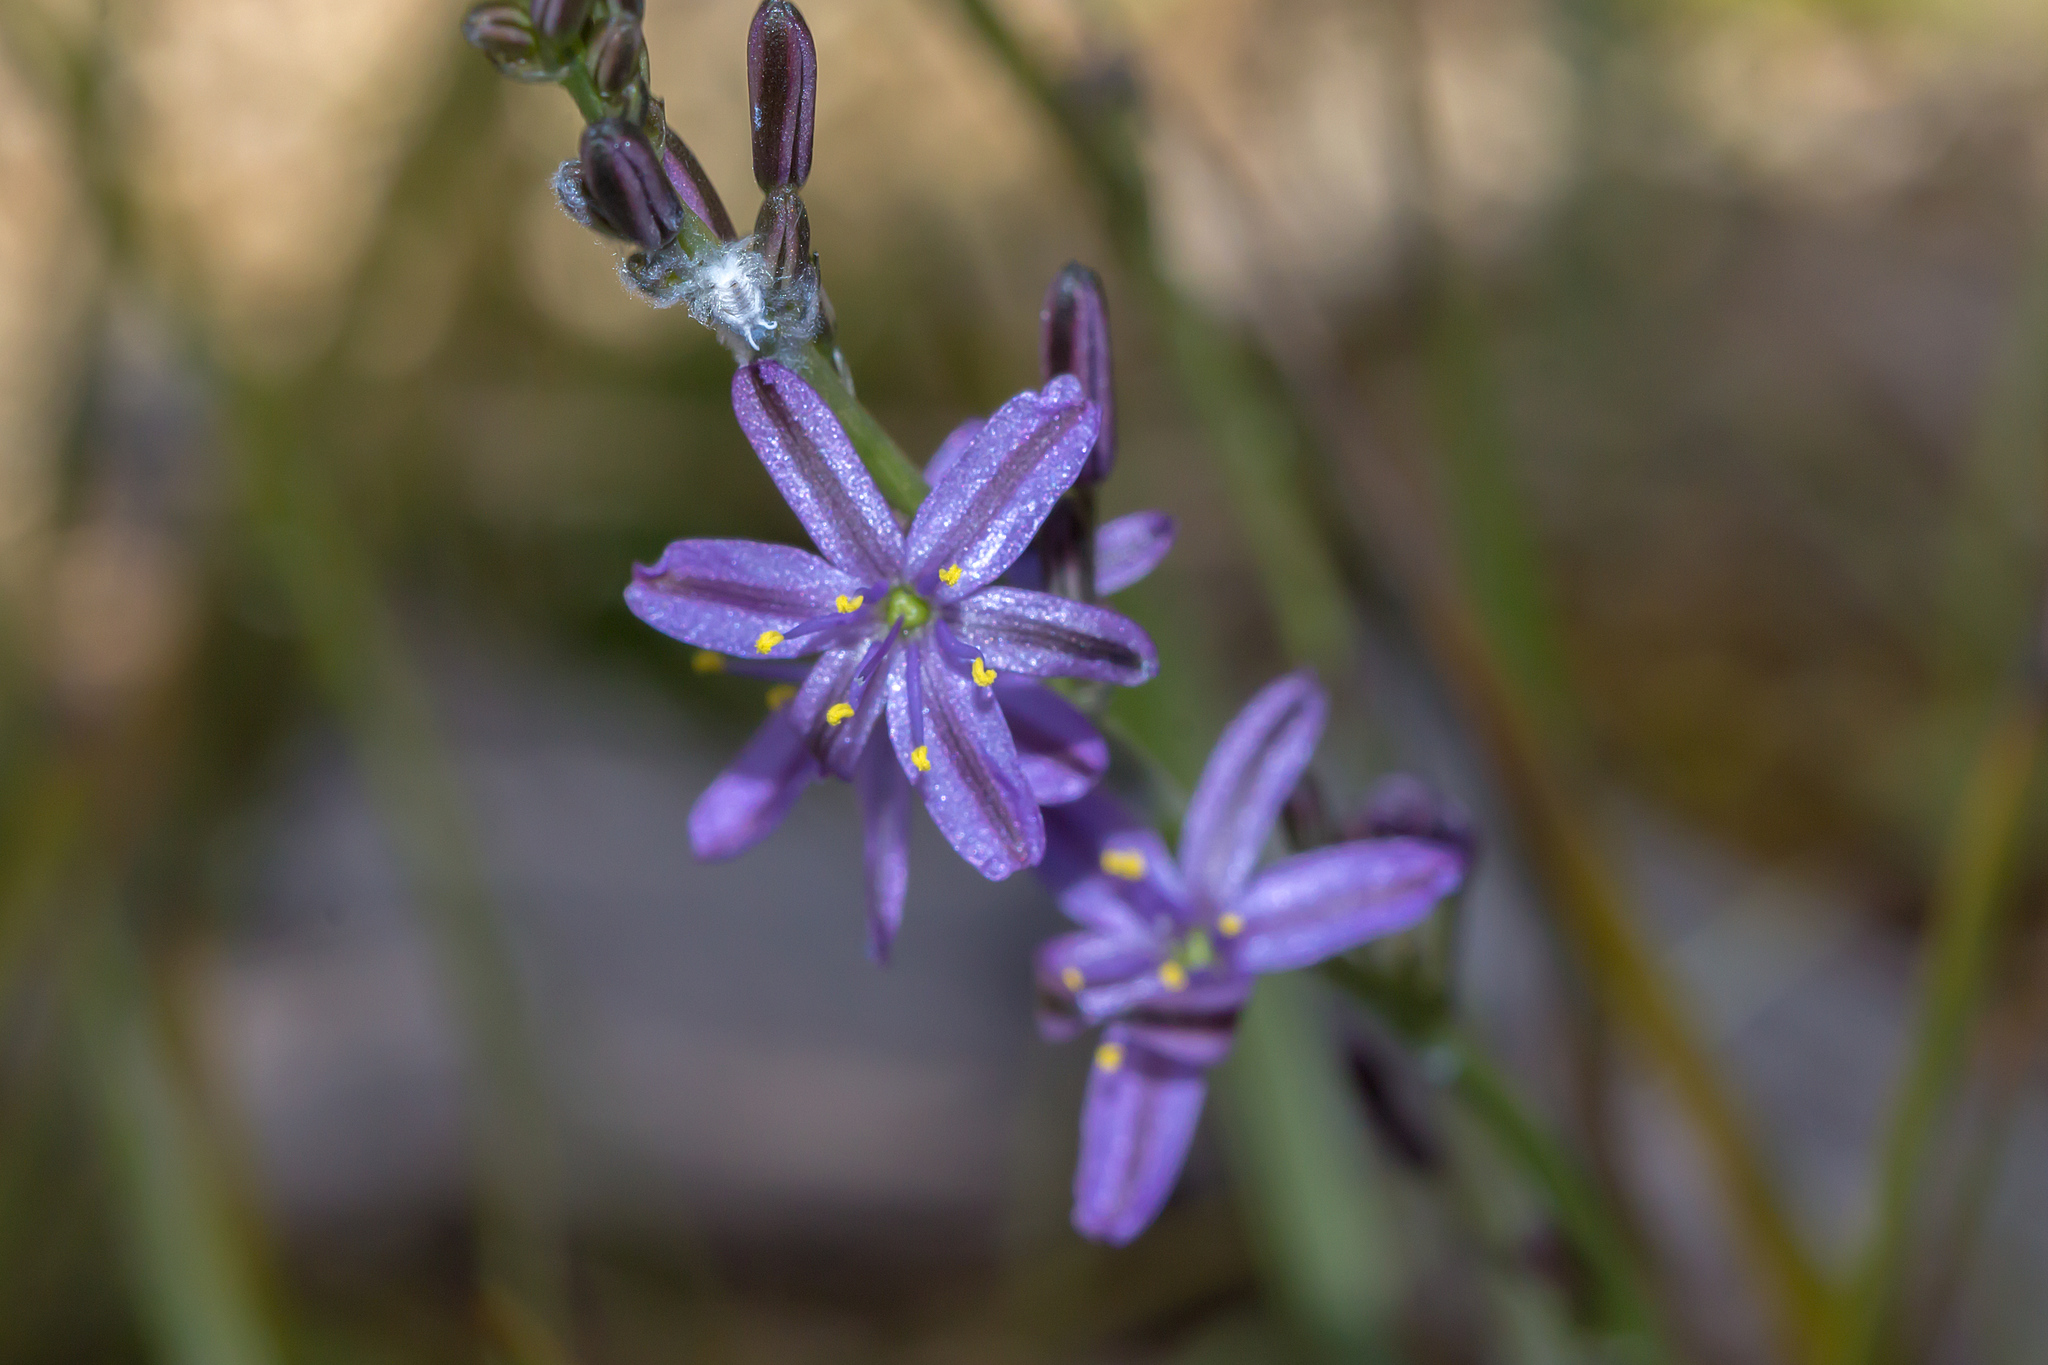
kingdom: Plantae
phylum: Tracheophyta
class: Liliopsida
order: Asparagales
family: Asphodelaceae
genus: Caesia
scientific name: Caesia calliantha
